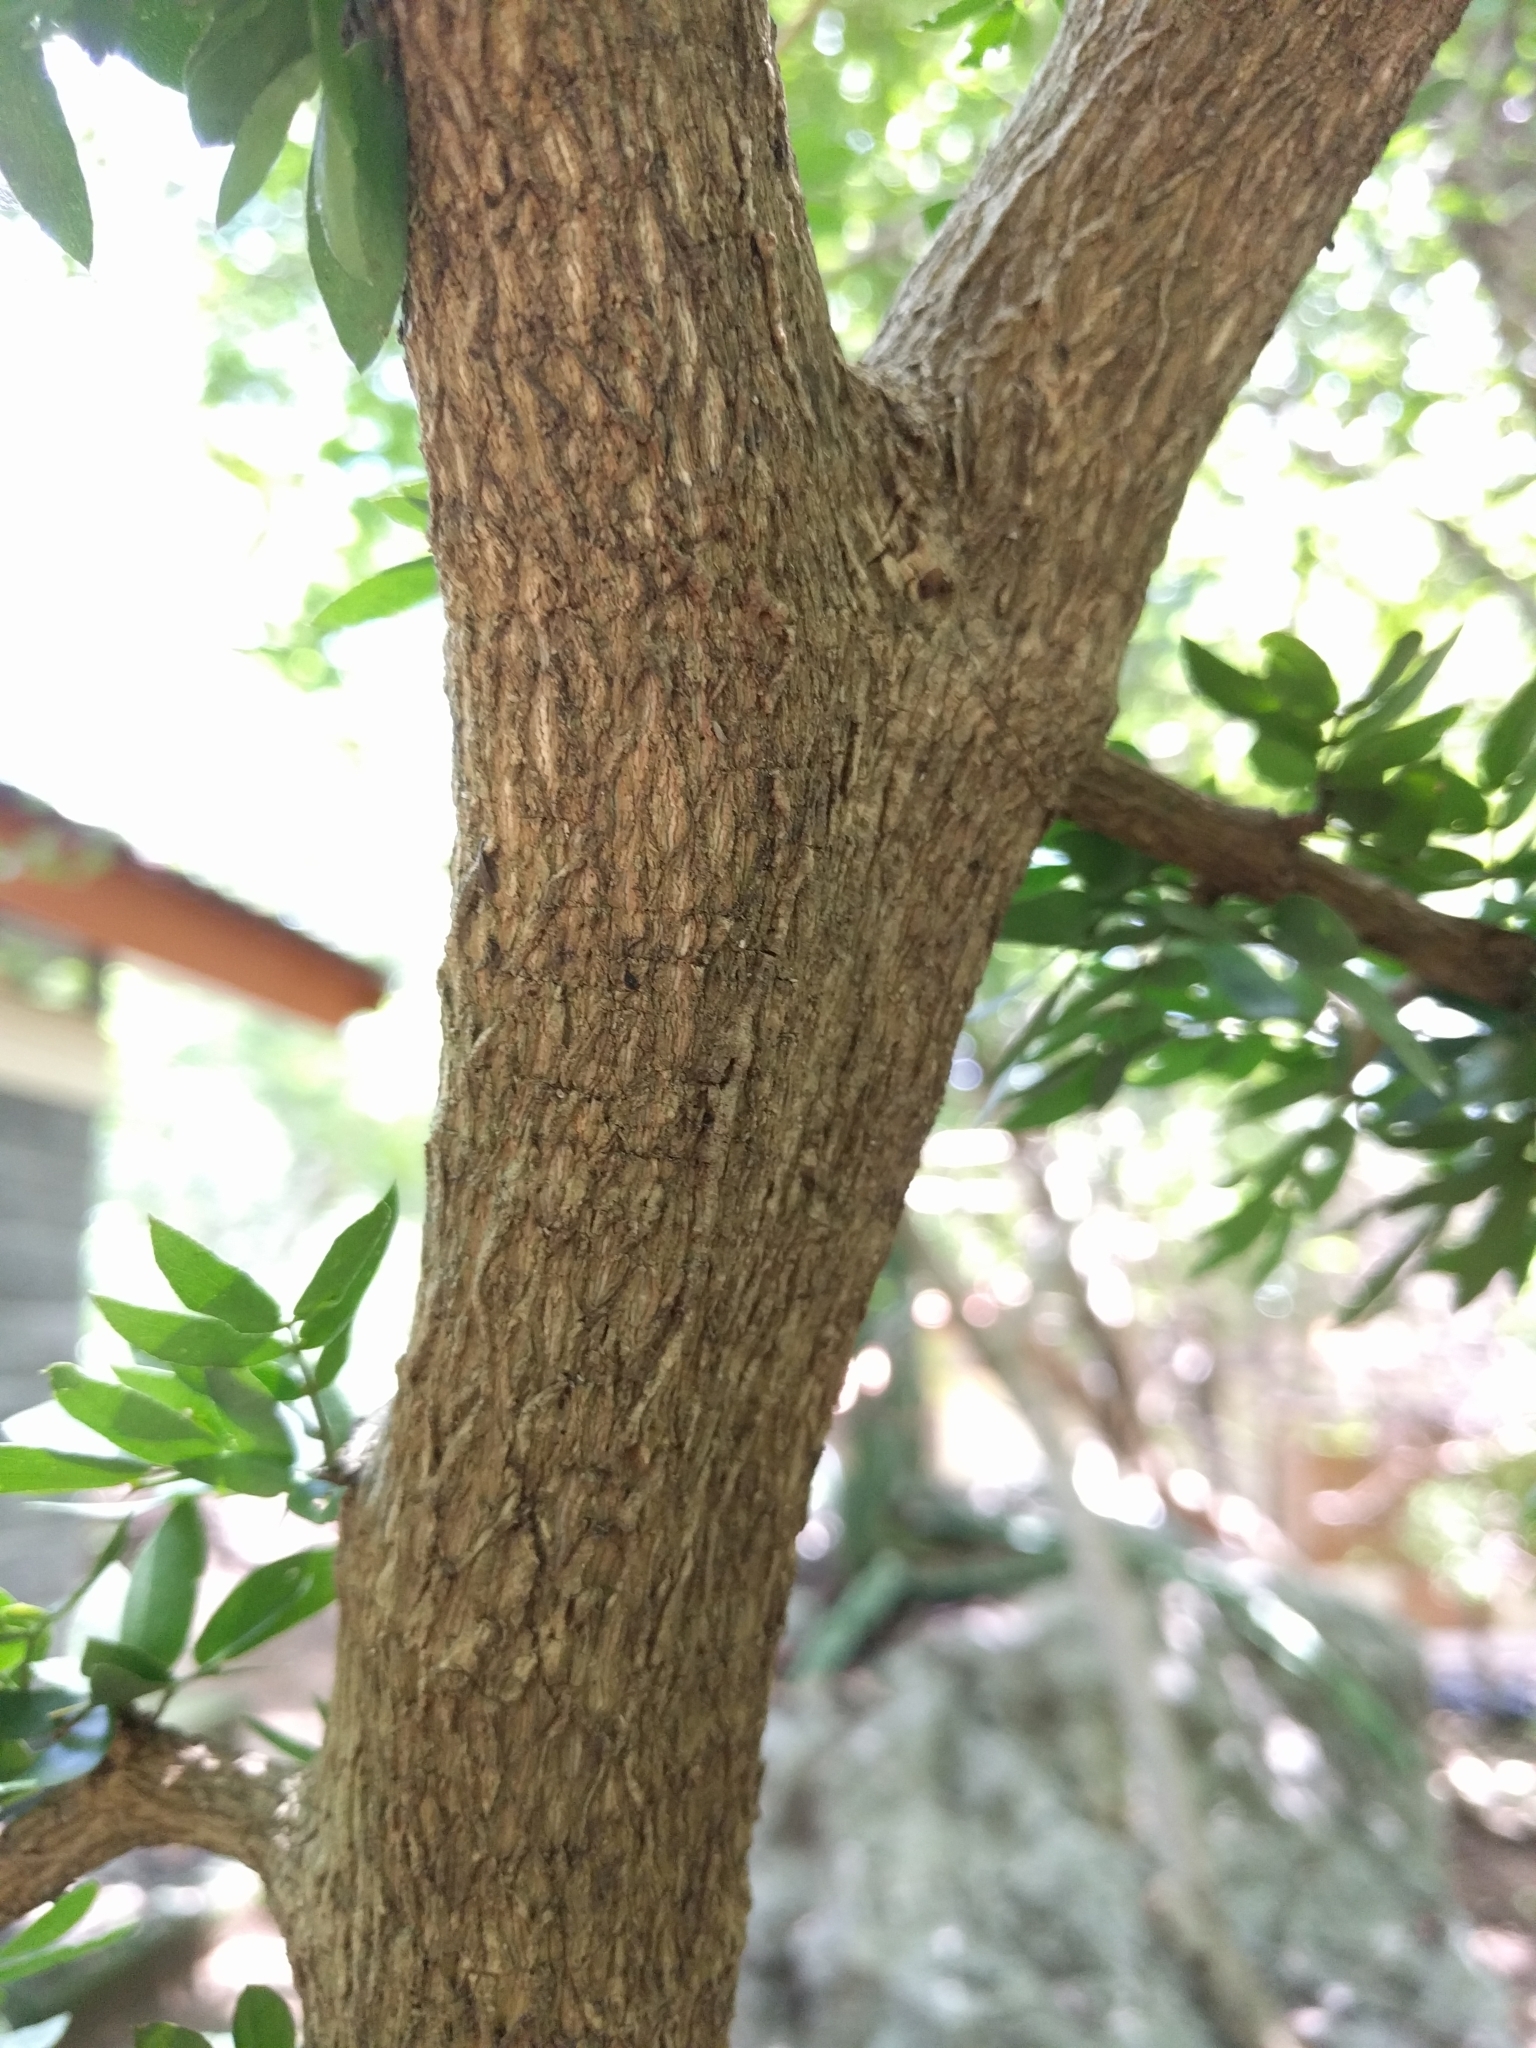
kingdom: Plantae
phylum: Tracheophyta
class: Magnoliopsida
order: Zygophyllales
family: Zygophyllaceae
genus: Guaiacum
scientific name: Guaiacum sanctum
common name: Holywood
